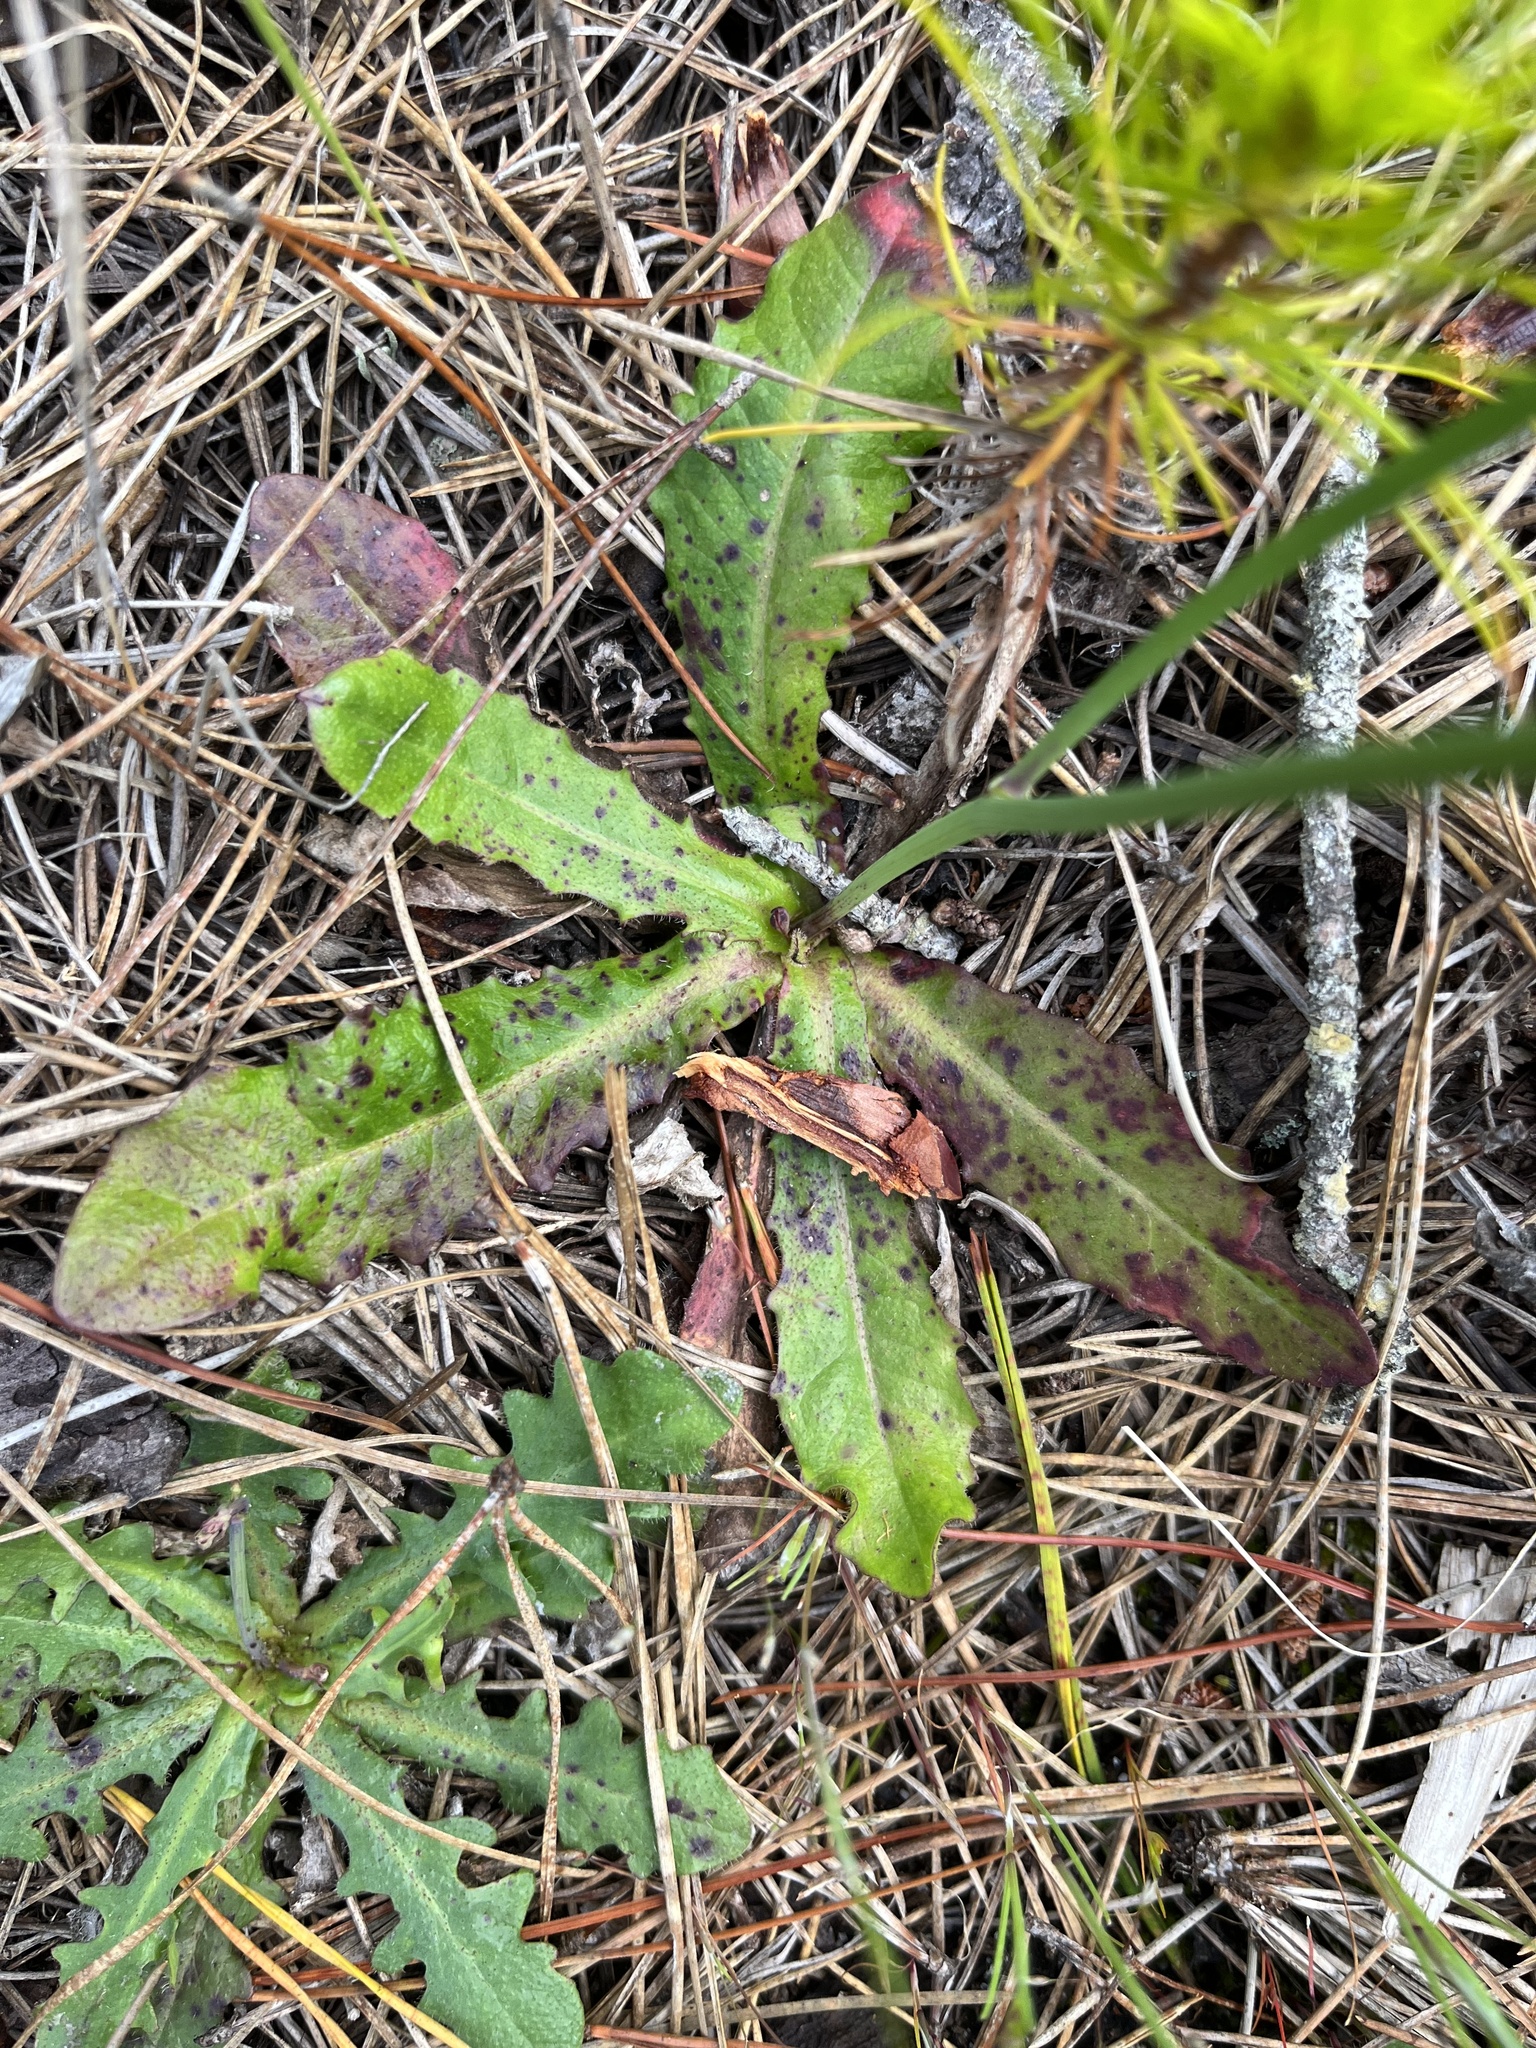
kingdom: Plantae
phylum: Tracheophyta
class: Magnoliopsida
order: Asterales
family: Asteraceae
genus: Hypochaeris
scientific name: Hypochaeris radicata
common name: Flatweed
